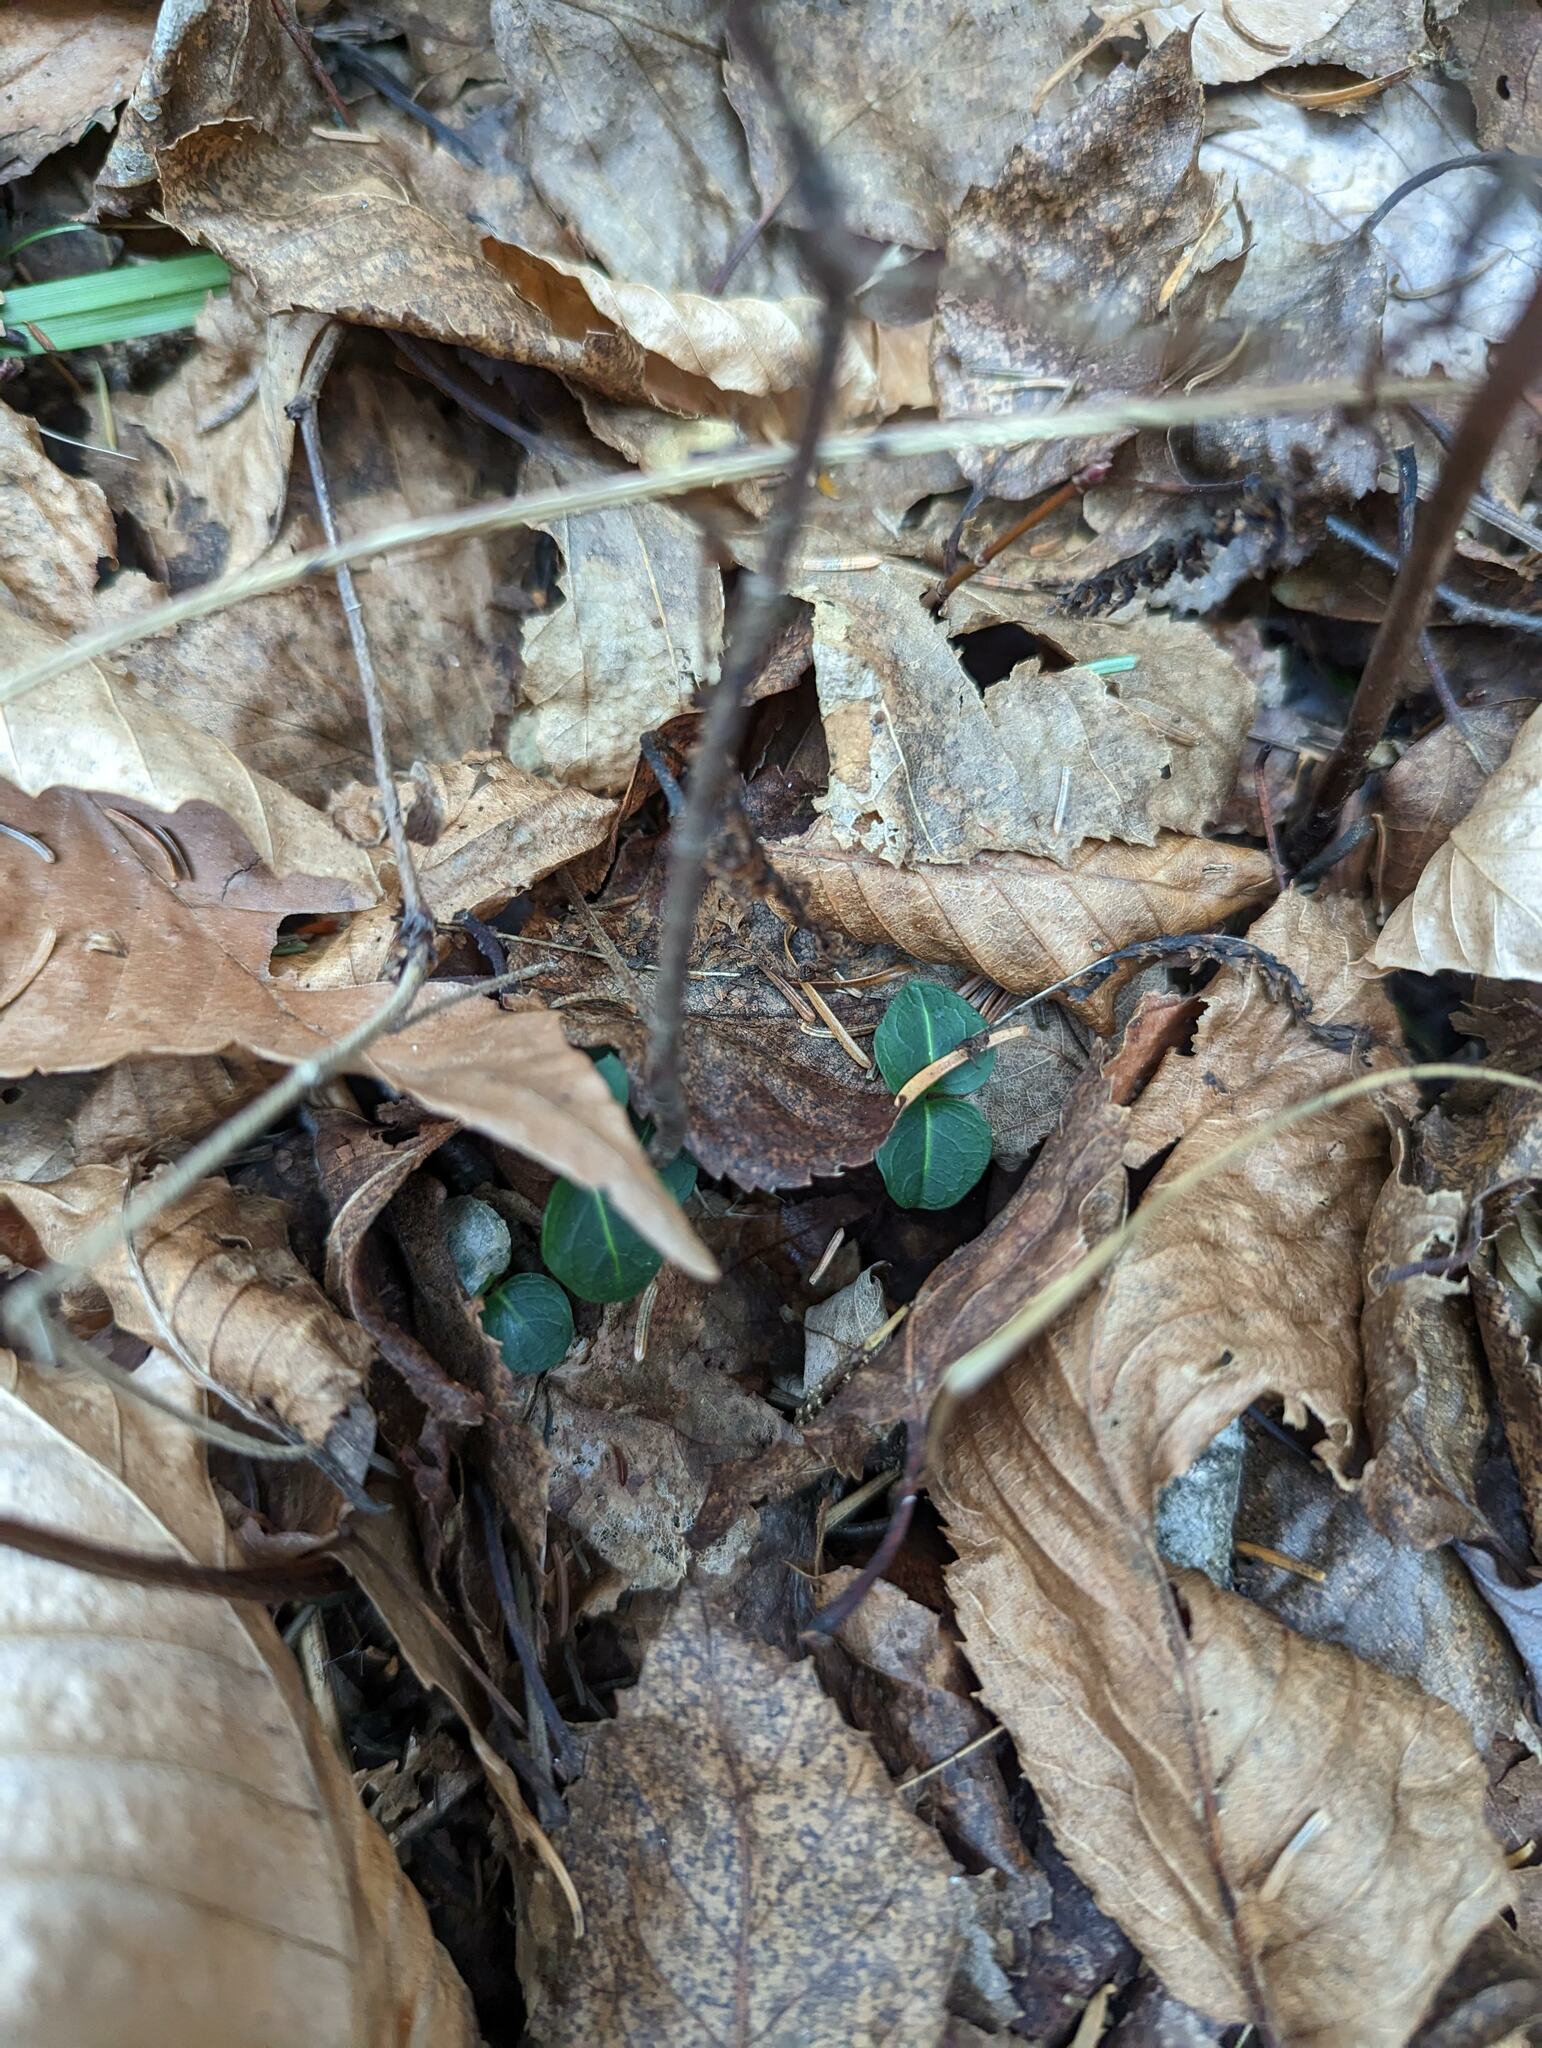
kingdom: Plantae
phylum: Tracheophyta
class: Magnoliopsida
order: Gentianales
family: Rubiaceae
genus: Mitchella
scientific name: Mitchella repens
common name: Partridge-berry
